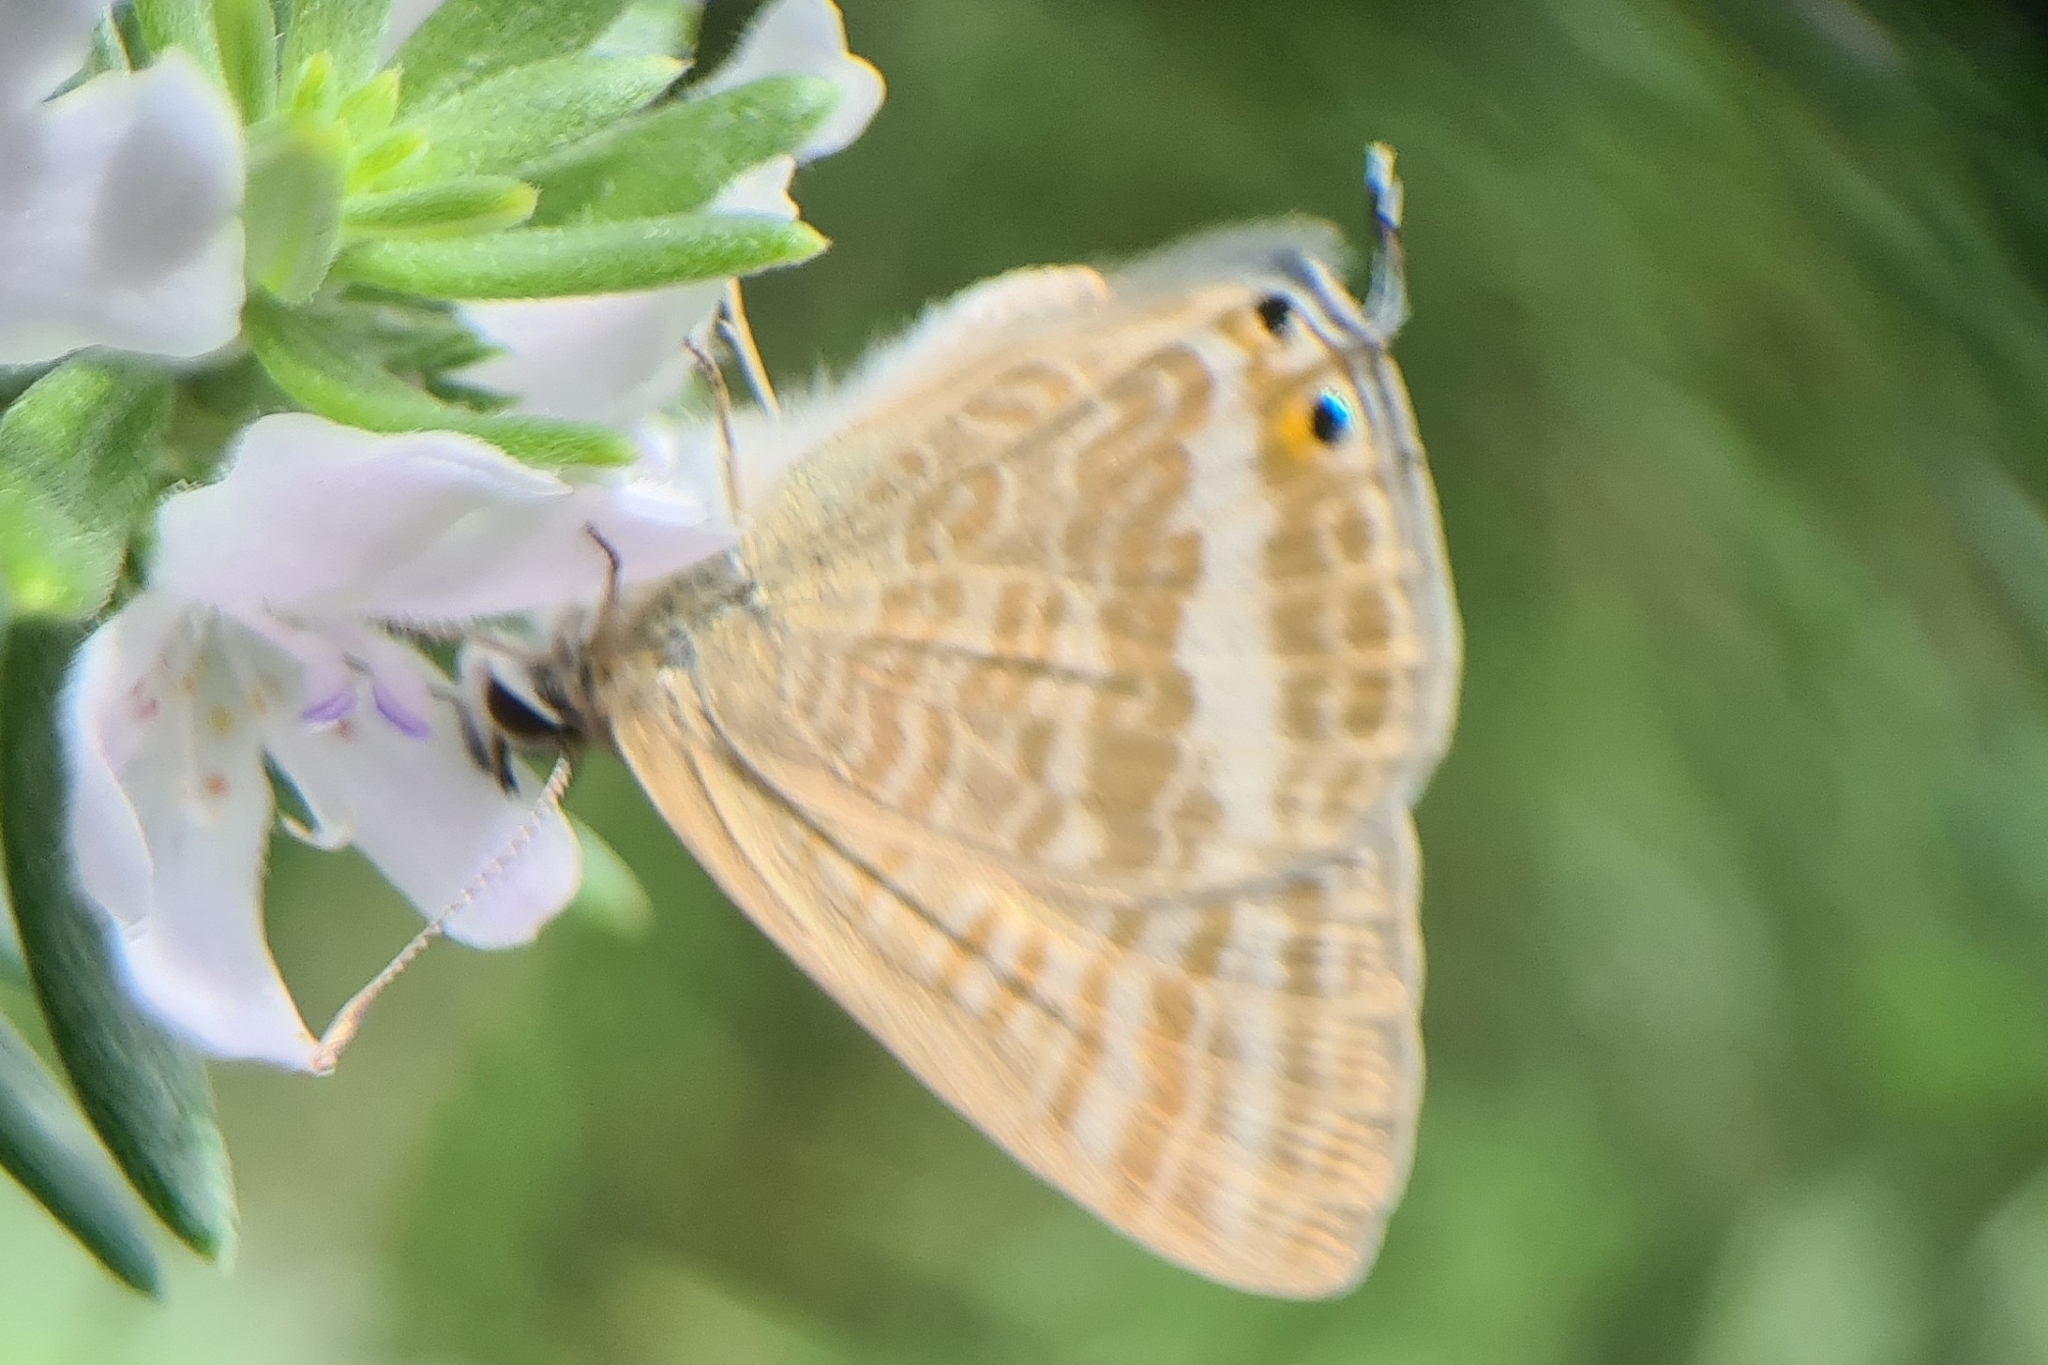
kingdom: Animalia
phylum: Arthropoda
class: Insecta
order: Lepidoptera
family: Lycaenidae
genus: Lampides
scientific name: Lampides boeticus
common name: Long-tailed blue
